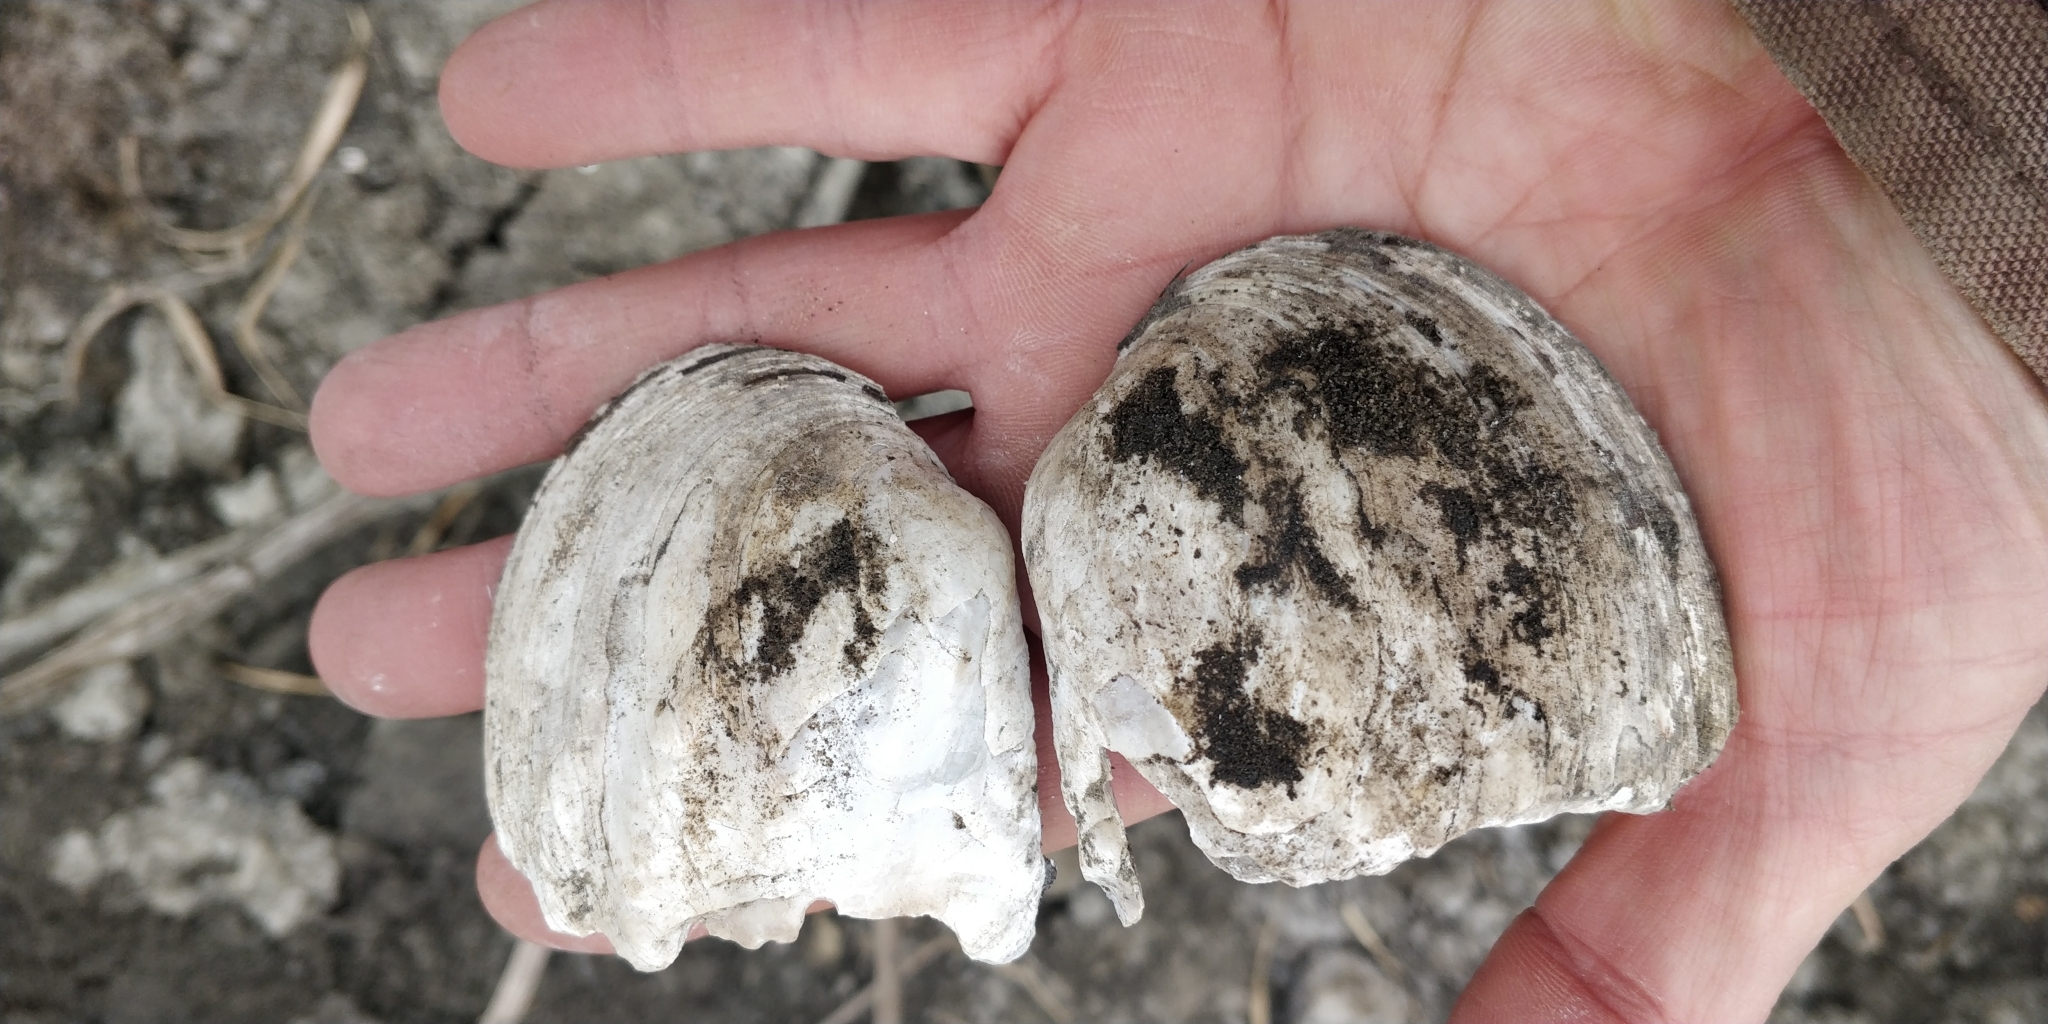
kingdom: Animalia
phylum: Mollusca
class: Bivalvia
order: Unionida
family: Unionidae
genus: Amblema
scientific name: Amblema plicata
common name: Threeridge
